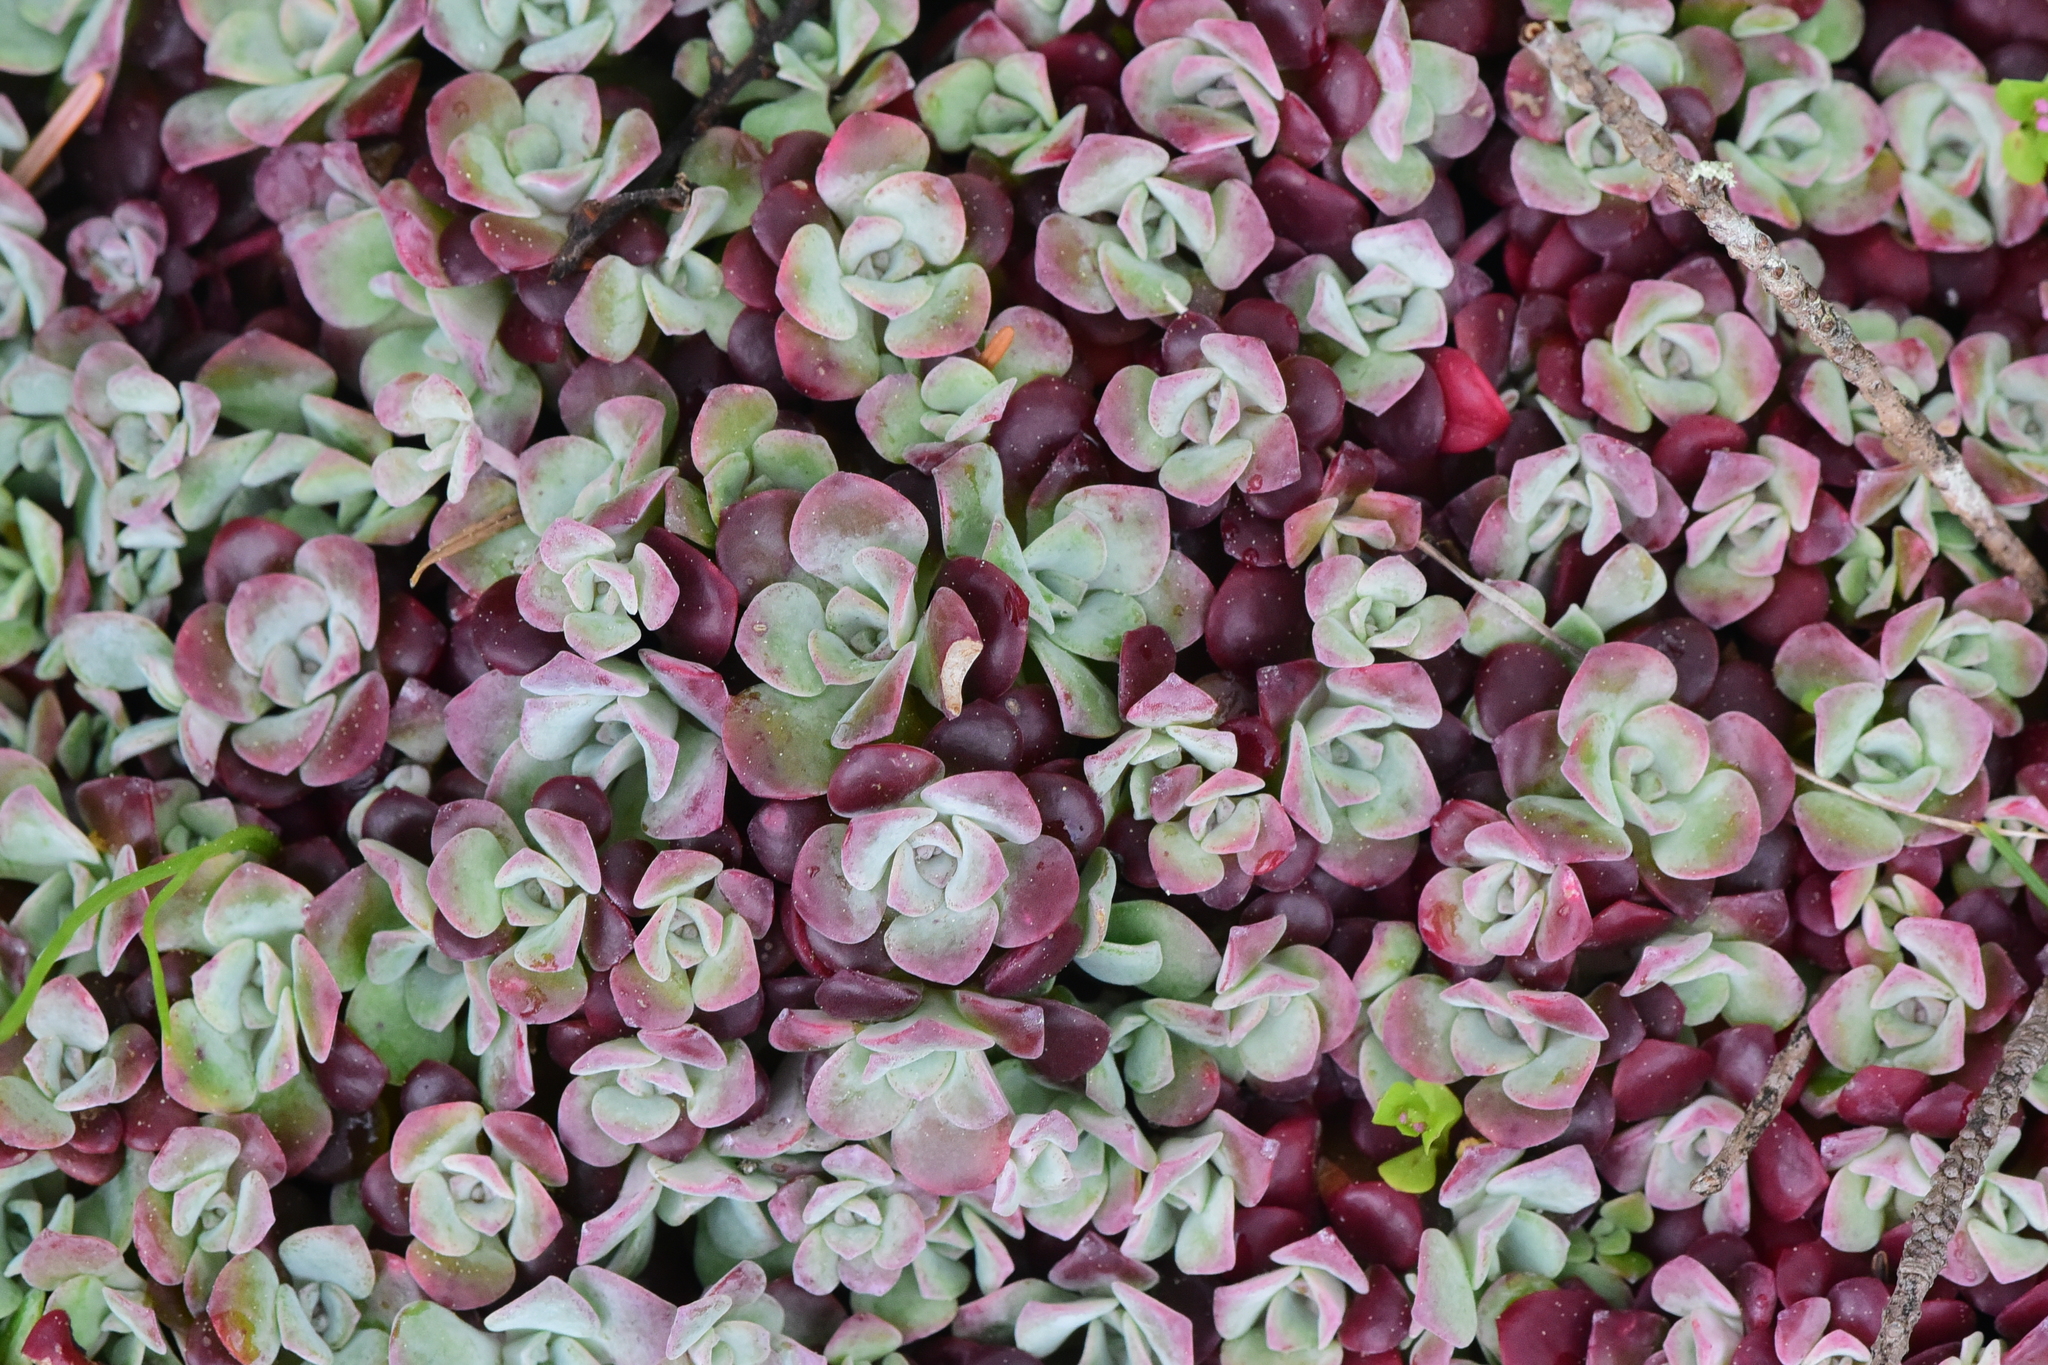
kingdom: Plantae
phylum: Tracheophyta
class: Magnoliopsida
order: Saxifragales
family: Crassulaceae
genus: Sedum
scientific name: Sedum spathulifolium
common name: Colorado stonecrop
